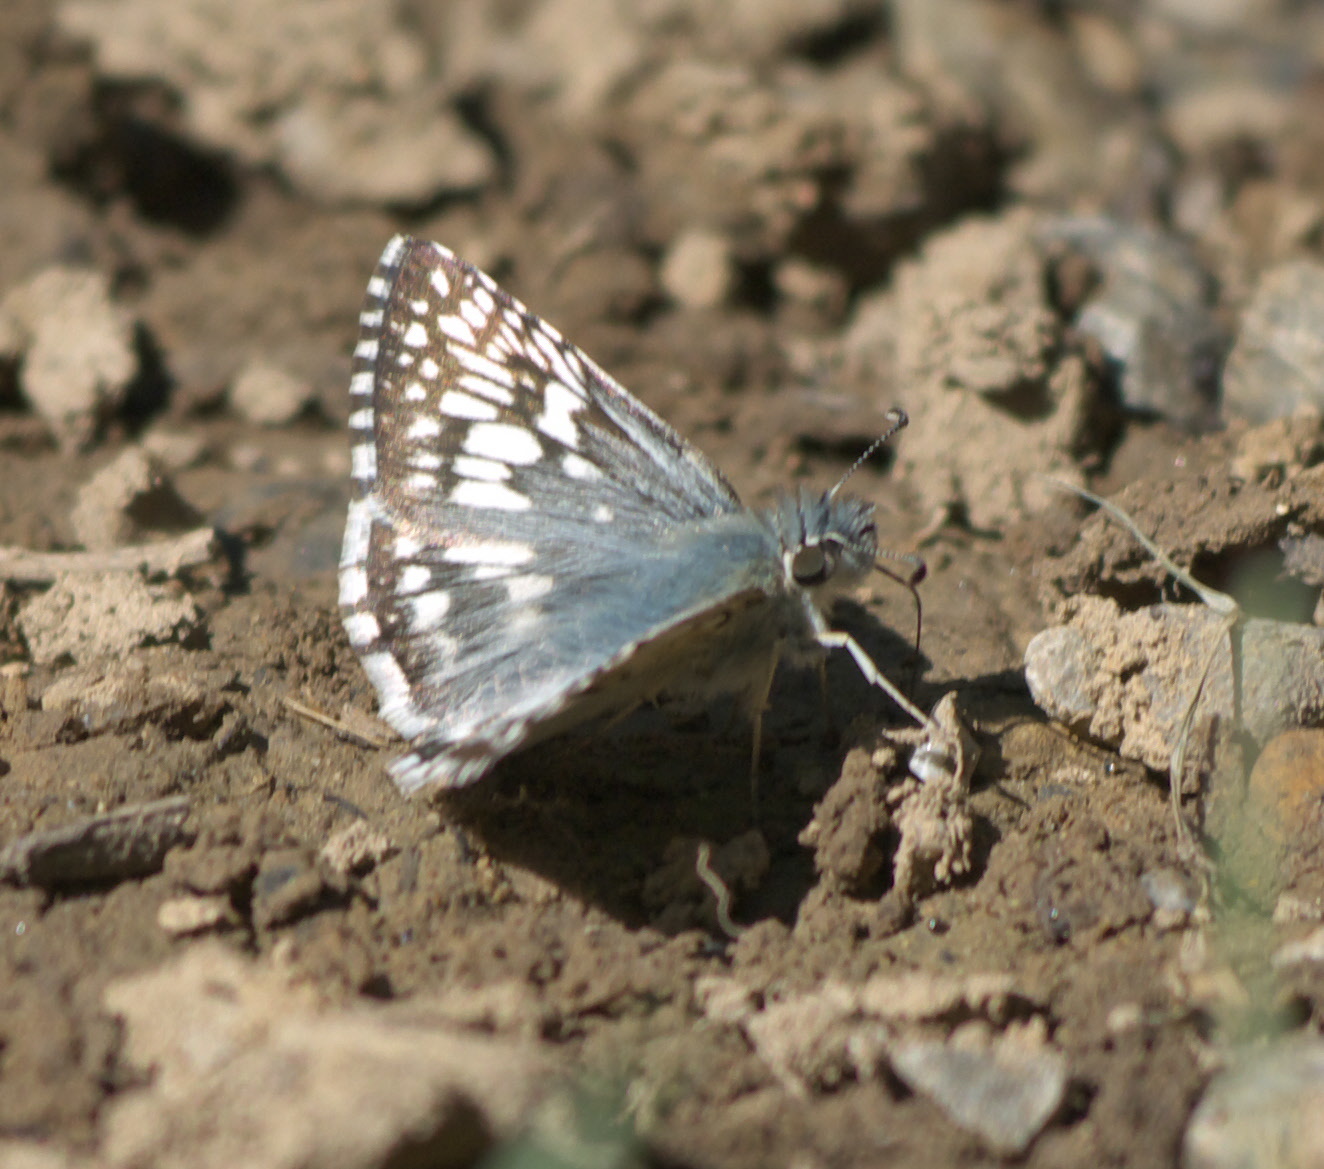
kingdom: Animalia
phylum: Arthropoda
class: Insecta
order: Lepidoptera
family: Hesperiidae
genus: Burnsius
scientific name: Burnsius communis
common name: Common checkered-skipper
